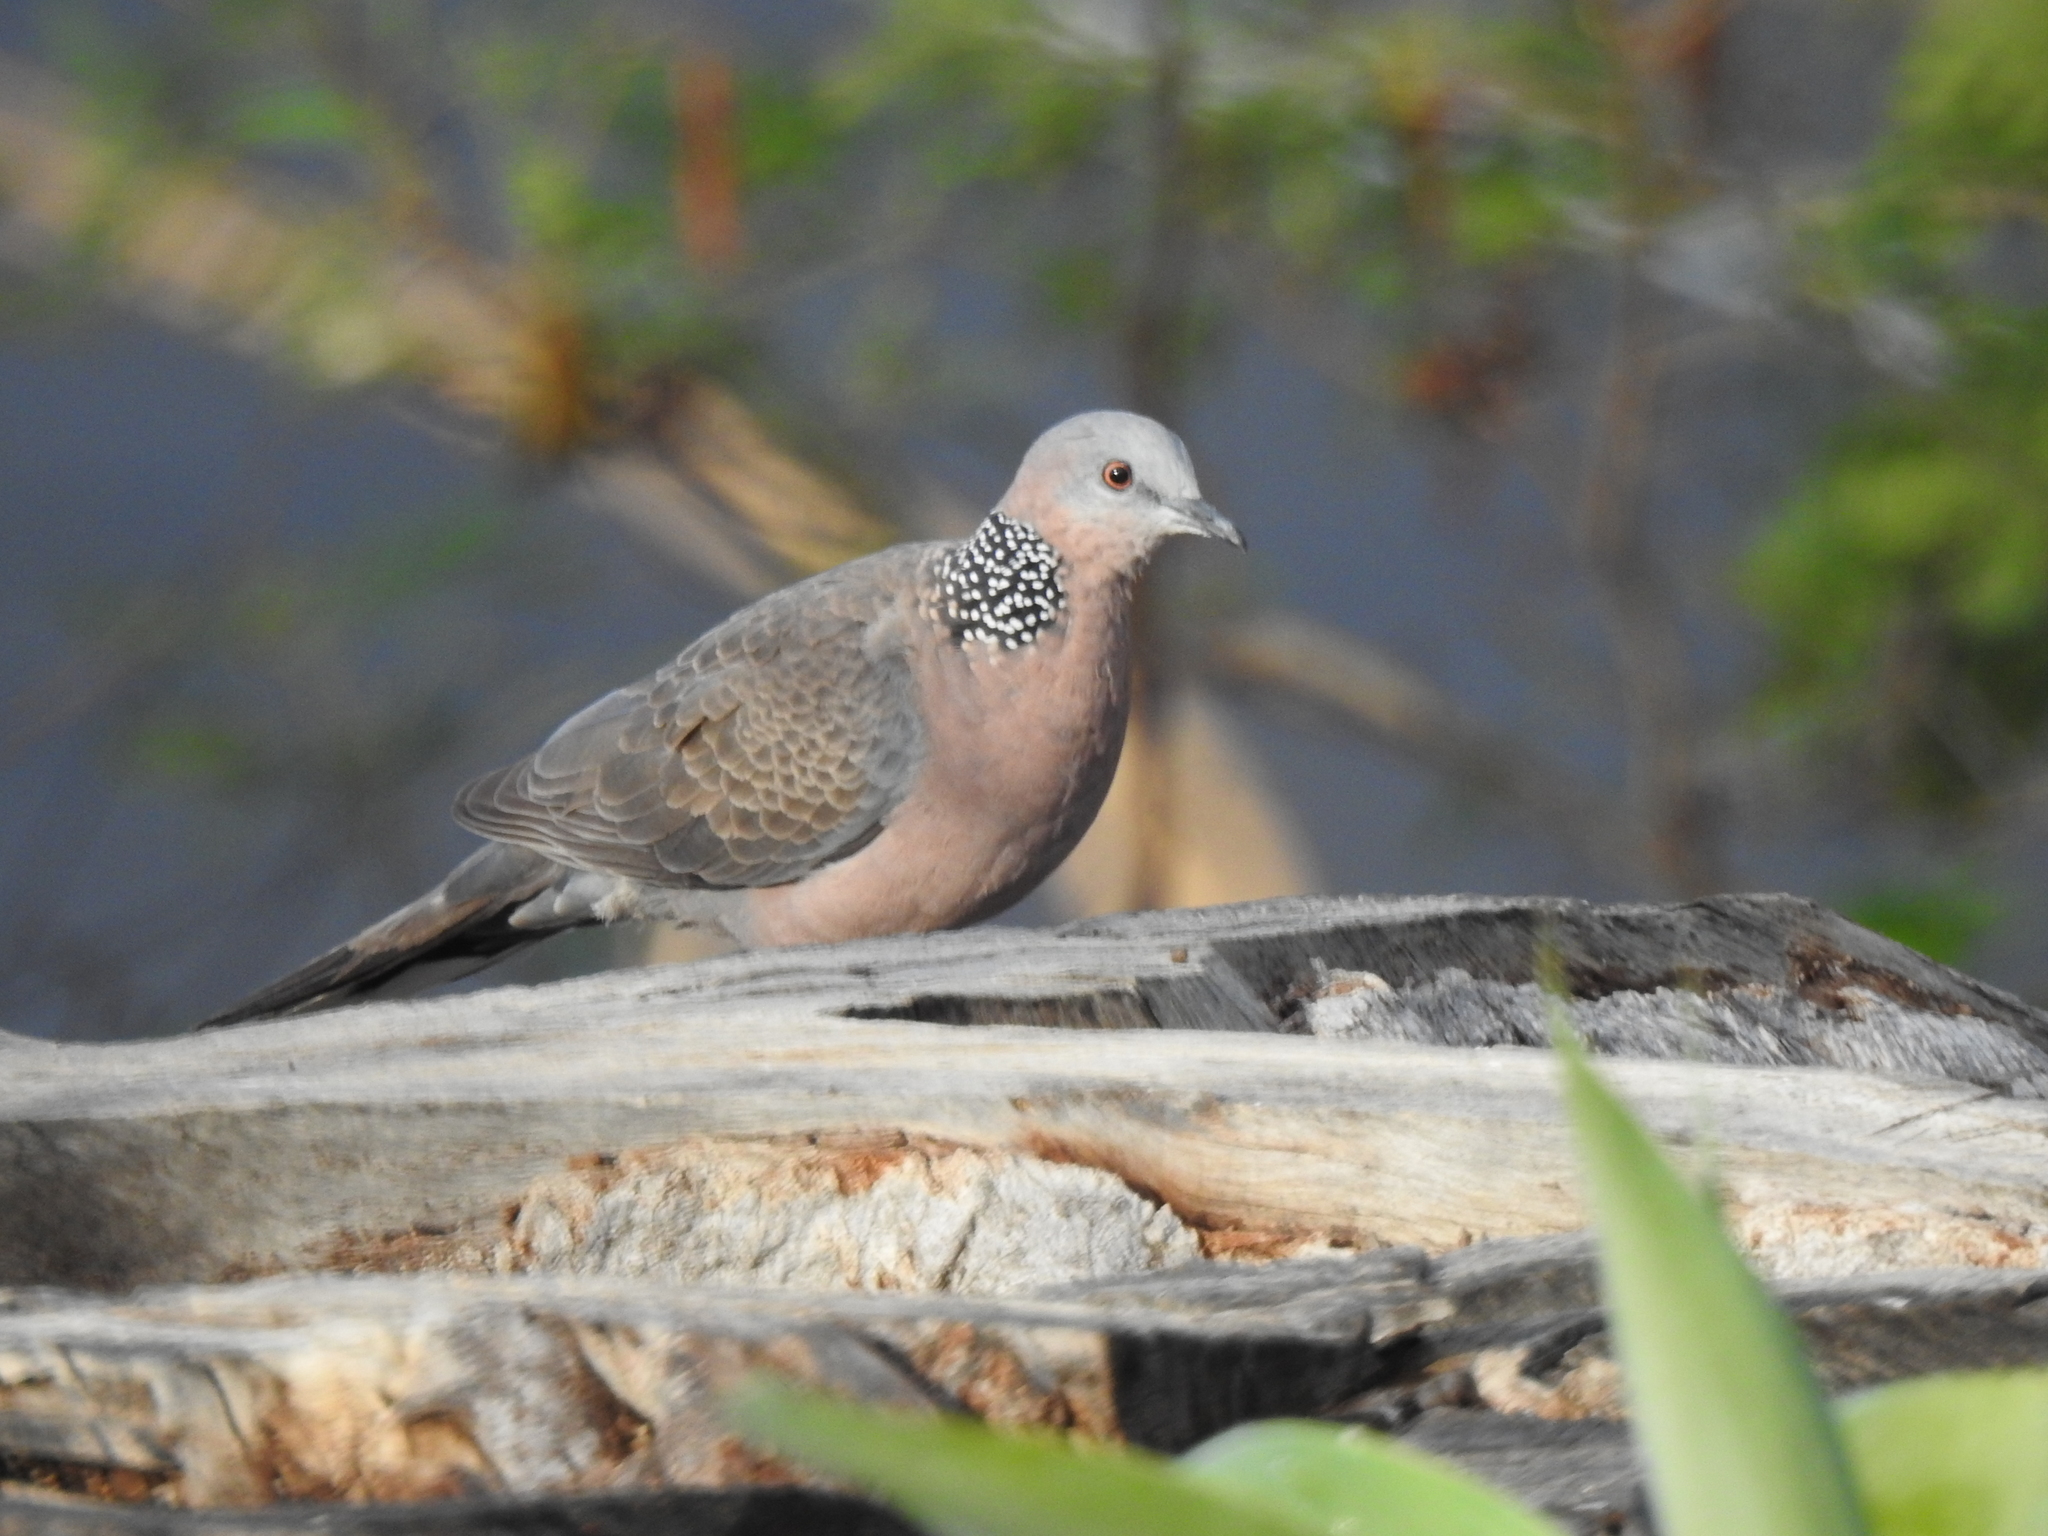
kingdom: Animalia
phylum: Chordata
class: Aves
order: Columbiformes
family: Columbidae
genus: Spilopelia
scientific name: Spilopelia chinensis
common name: Spotted dove
